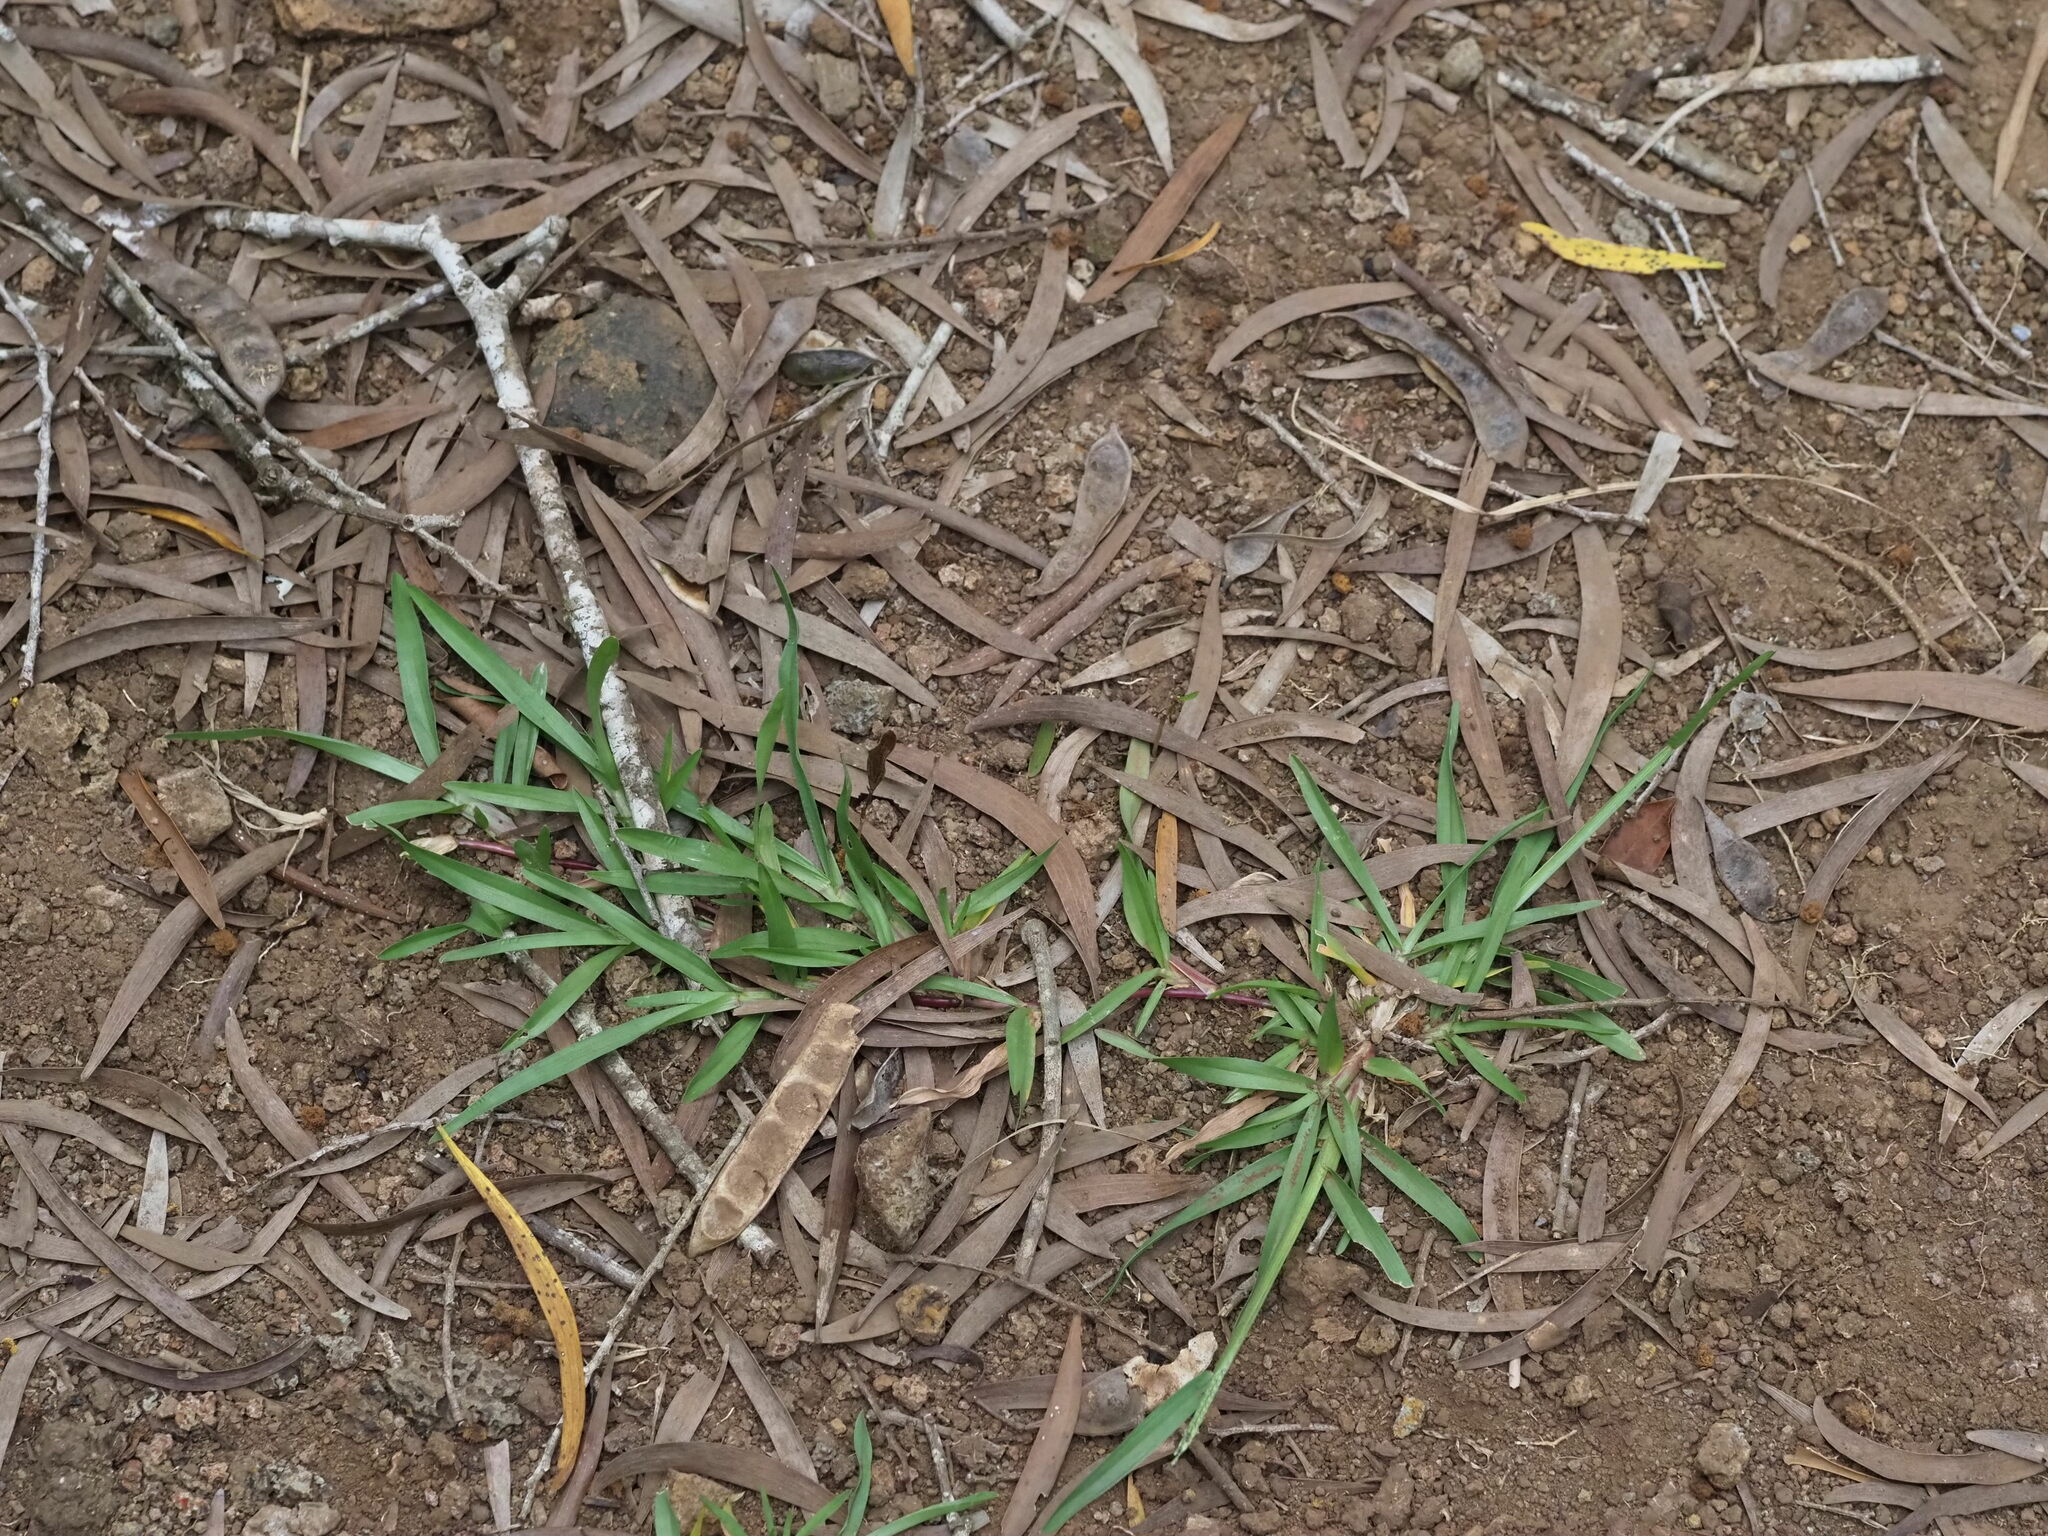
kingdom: Plantae
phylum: Tracheophyta
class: Liliopsida
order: Poales
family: Poaceae
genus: Axonopus
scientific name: Axonopus fissifolius
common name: Common carpetgrass
